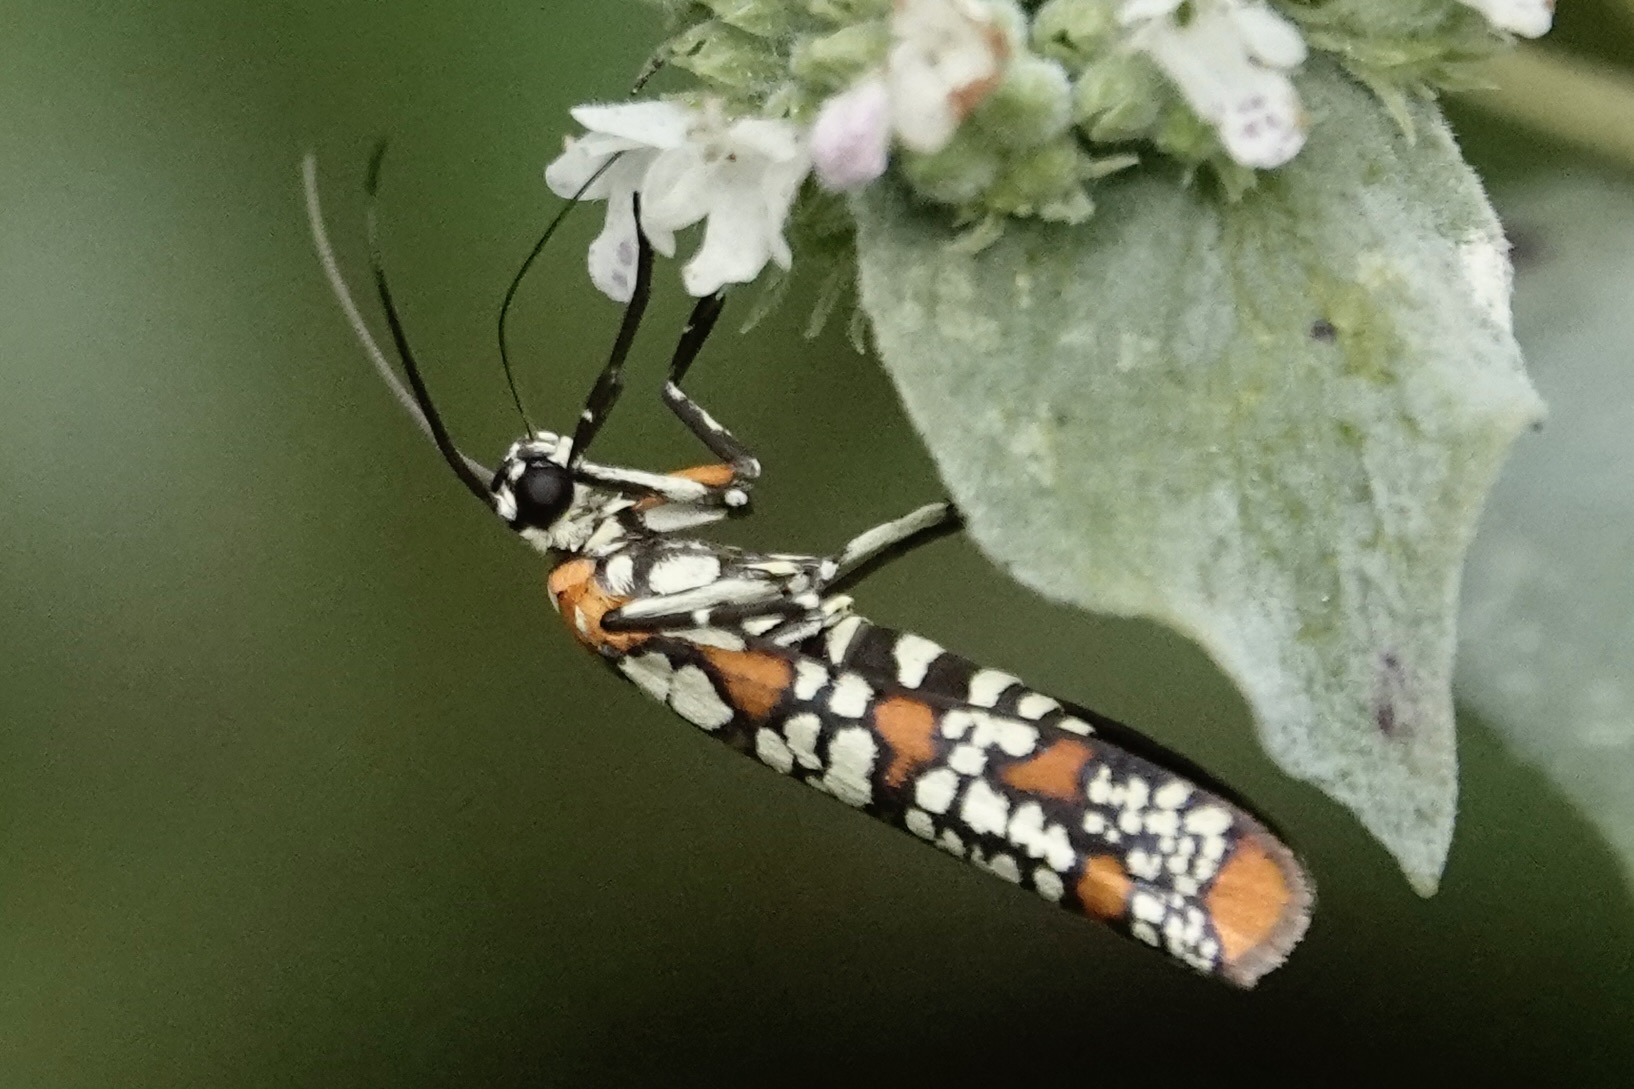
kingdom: Animalia
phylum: Arthropoda
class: Insecta
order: Lepidoptera
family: Attevidae
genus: Atteva
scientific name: Atteva punctella
